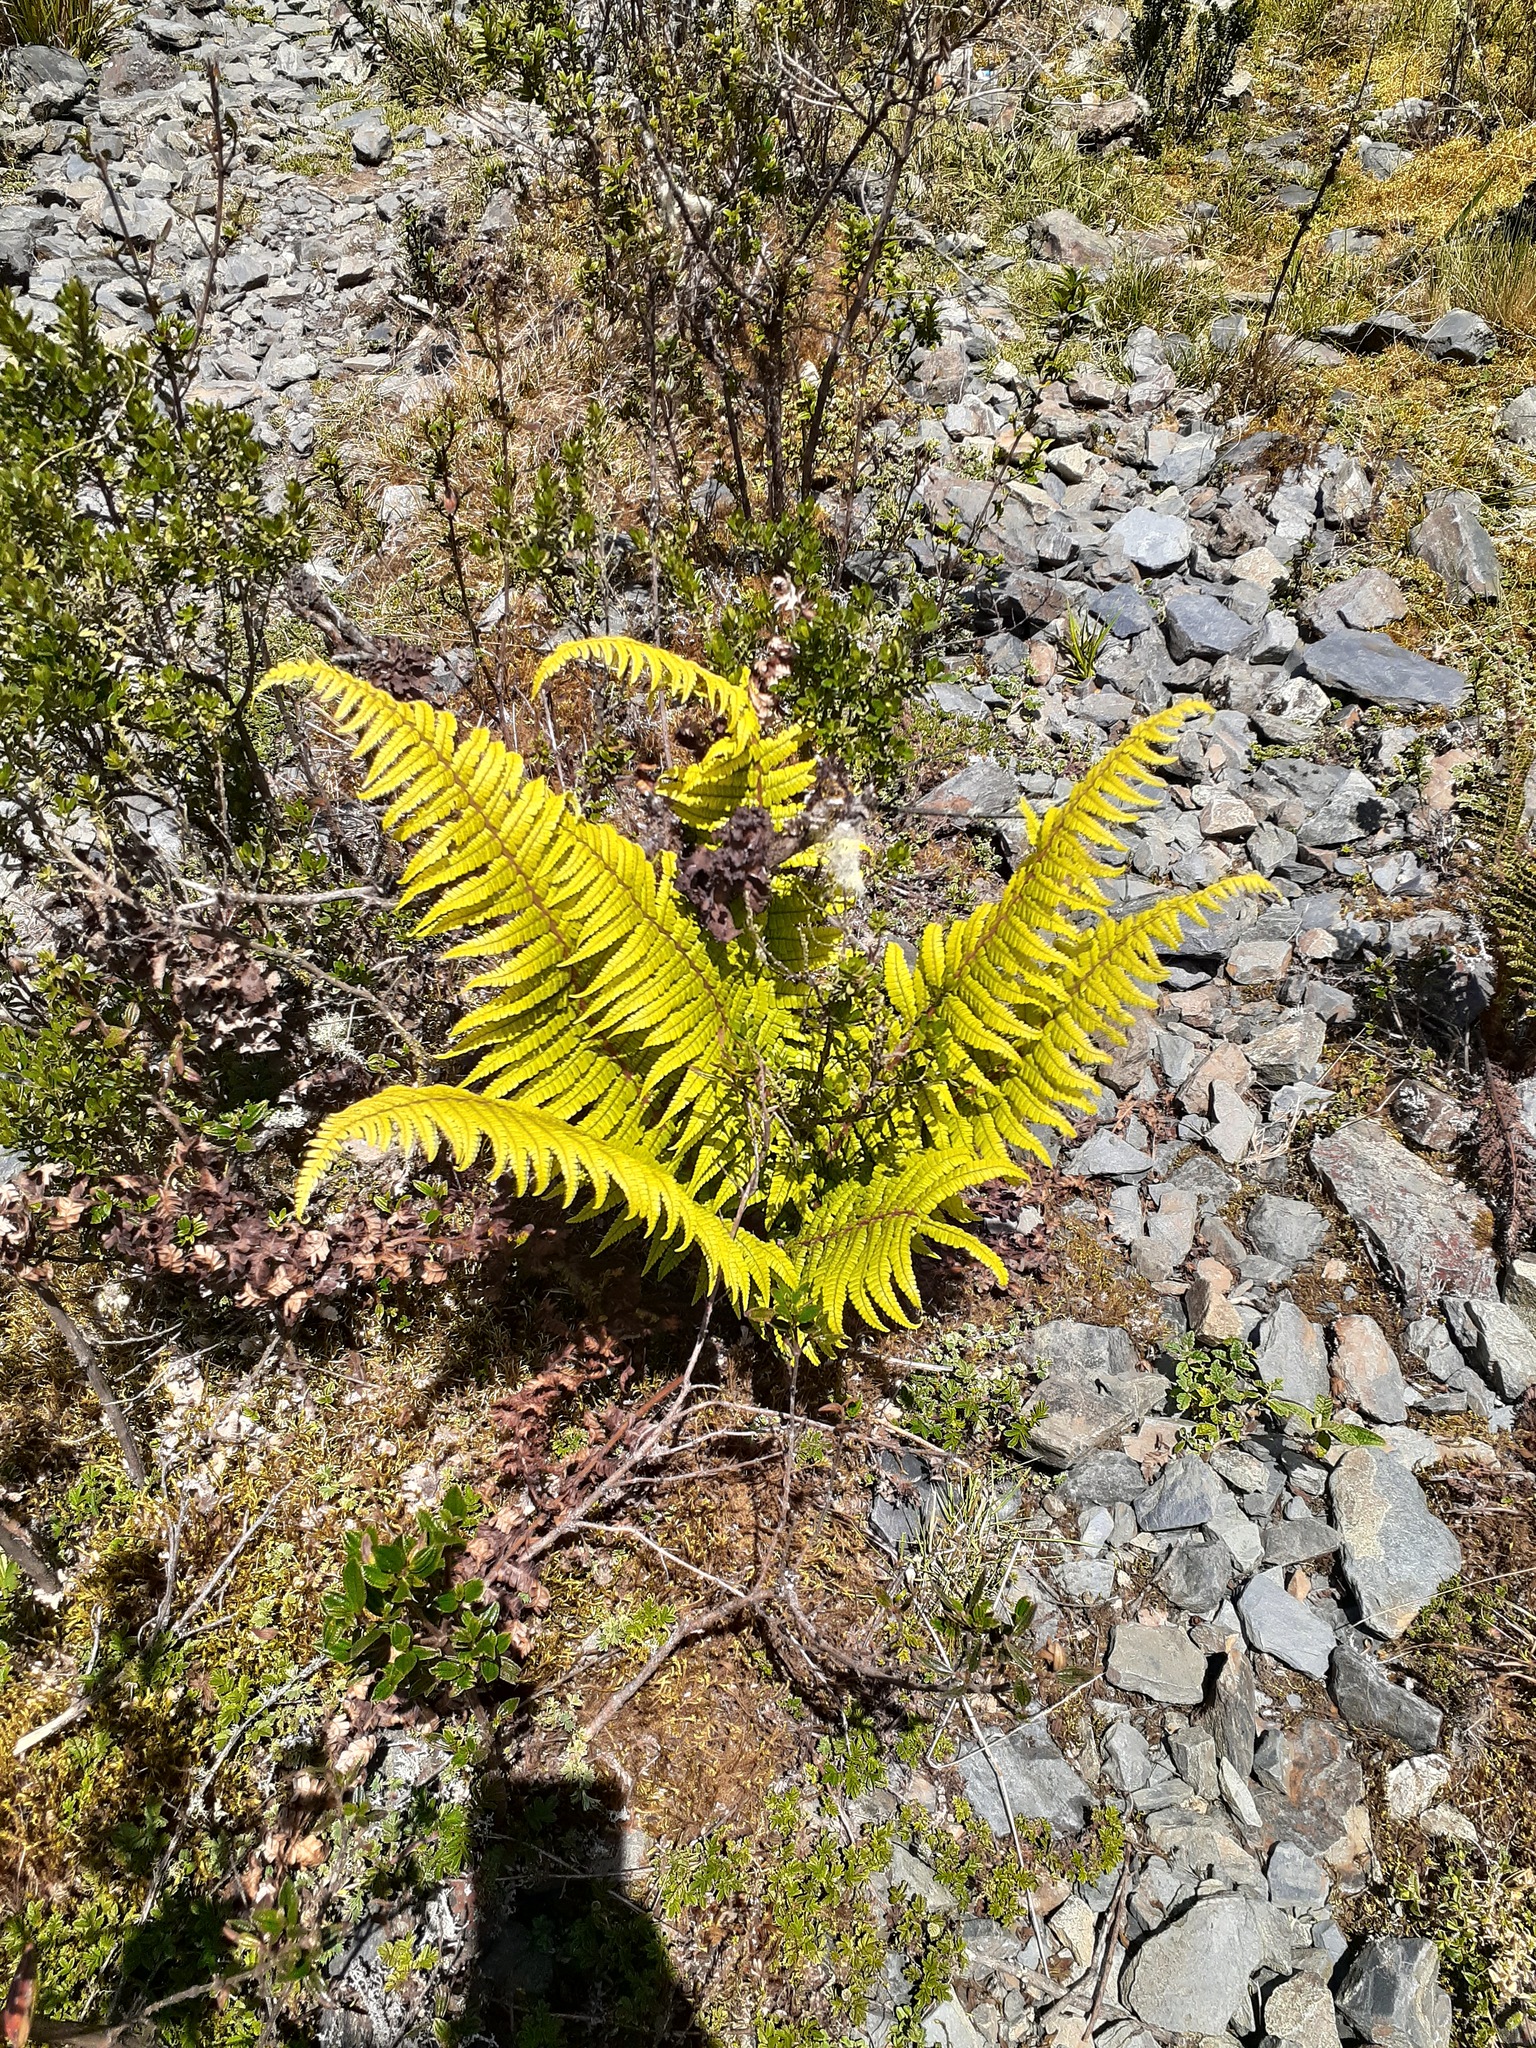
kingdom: Plantae
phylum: Tracheophyta
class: Polypodiopsida
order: Polypodiales
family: Dryopteridaceae
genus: Dryopteris
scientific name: Dryopteris wallichiana
